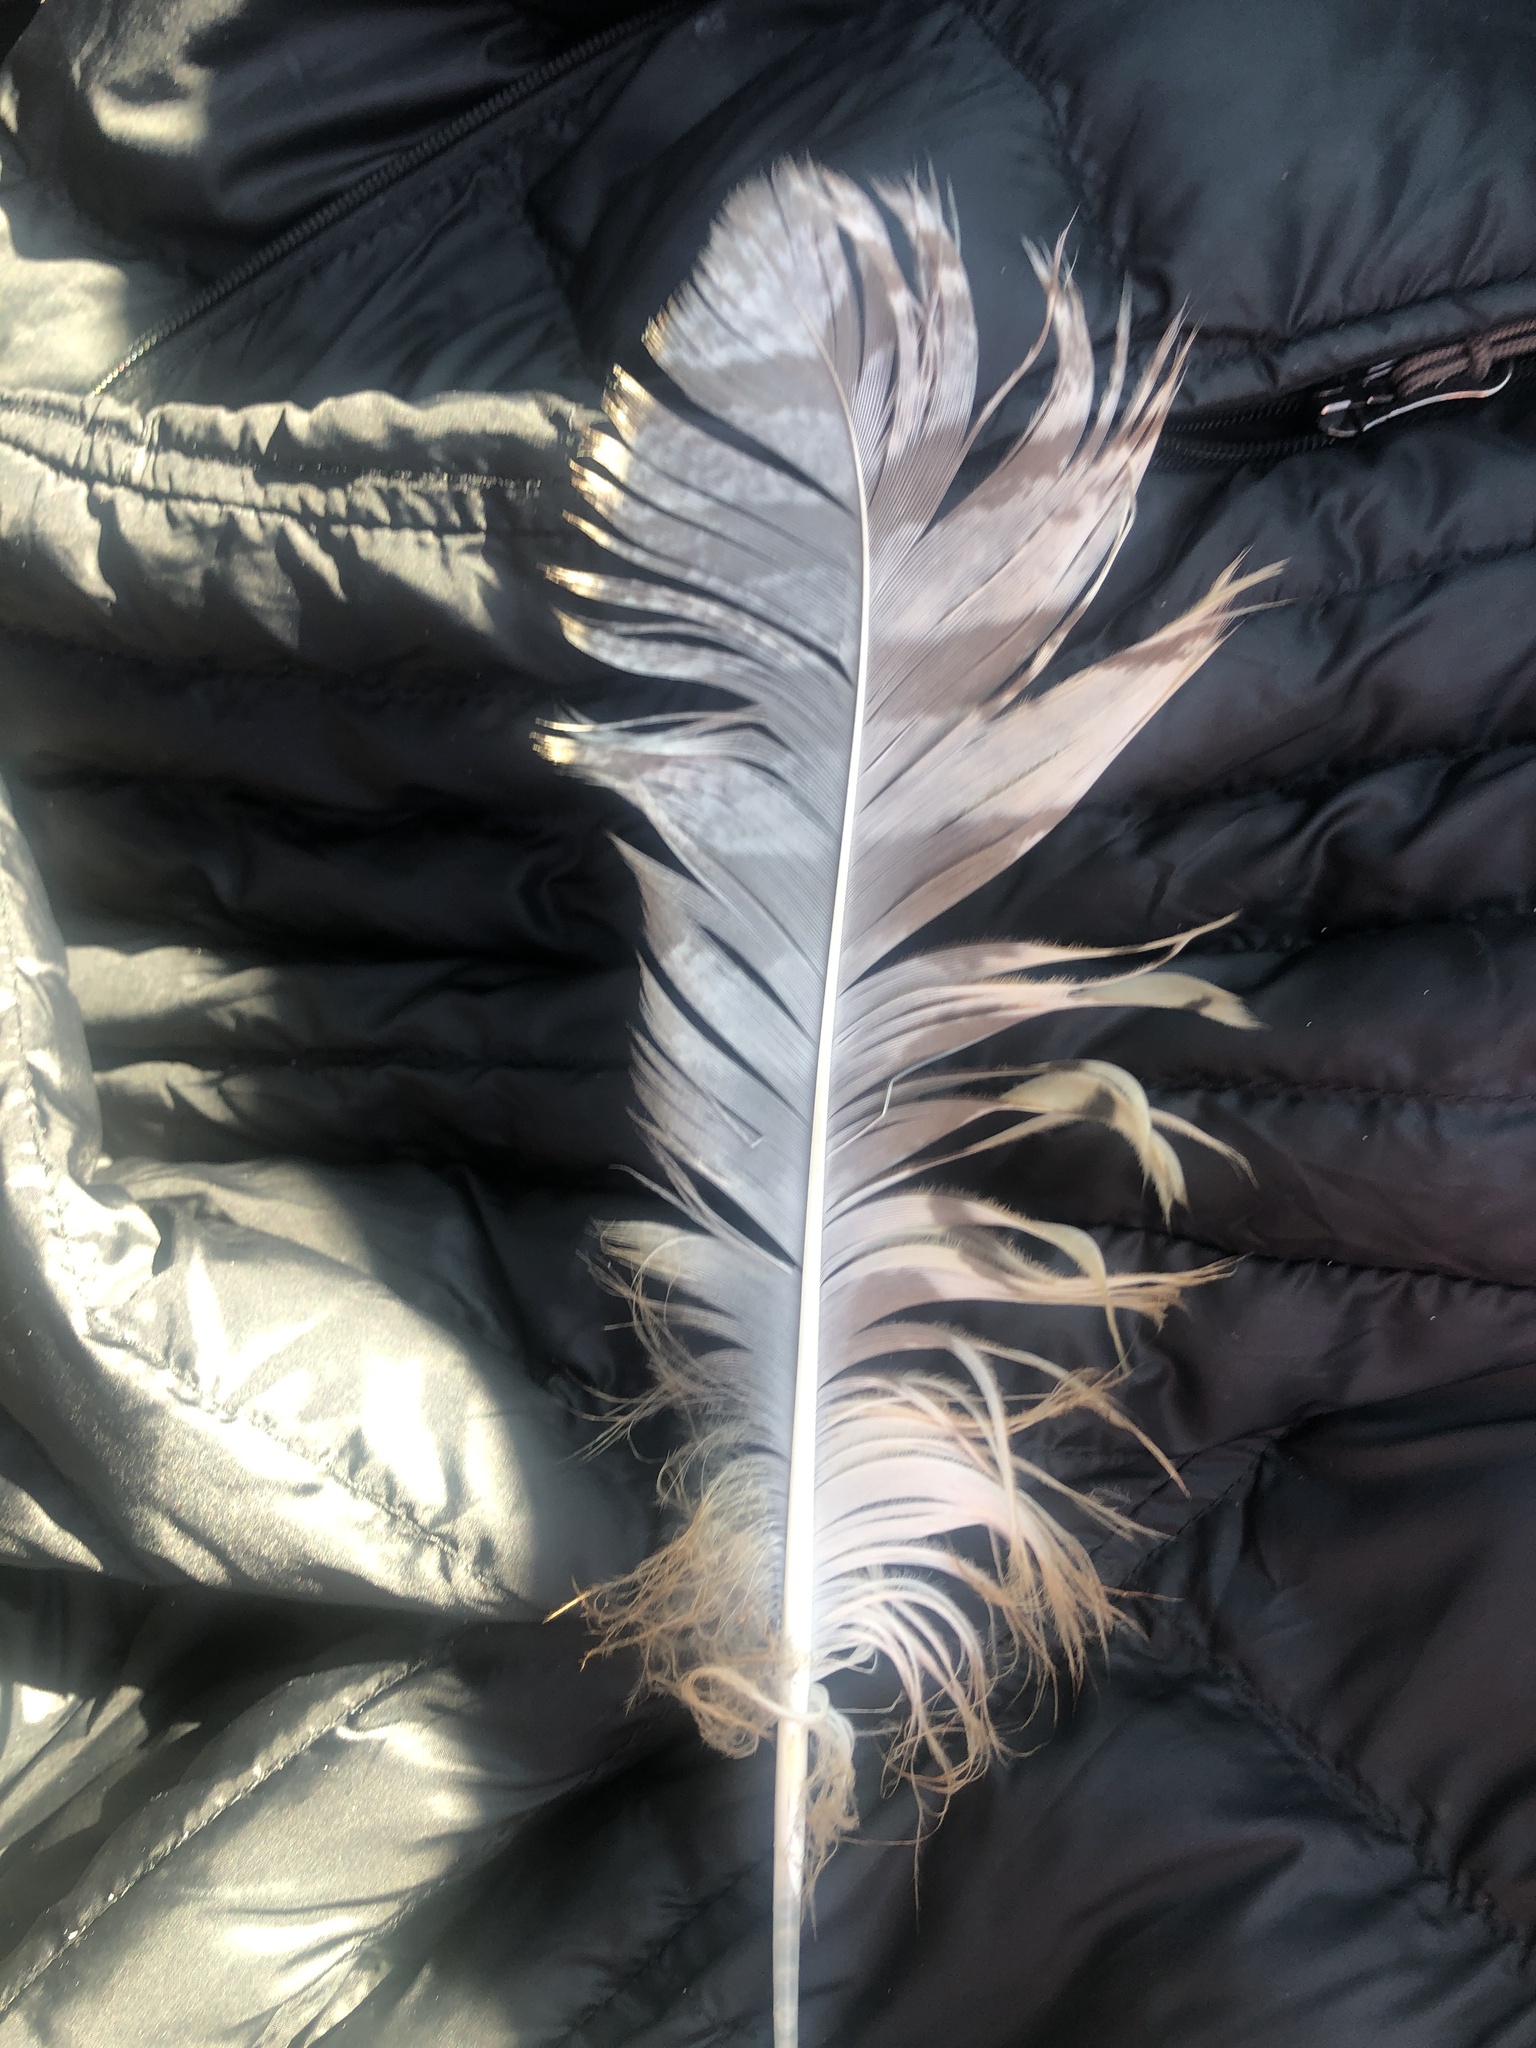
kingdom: Animalia
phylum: Chordata
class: Aves
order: Strigiformes
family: Strigidae
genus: Bubo
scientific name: Bubo virginianus
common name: Great horned owl
